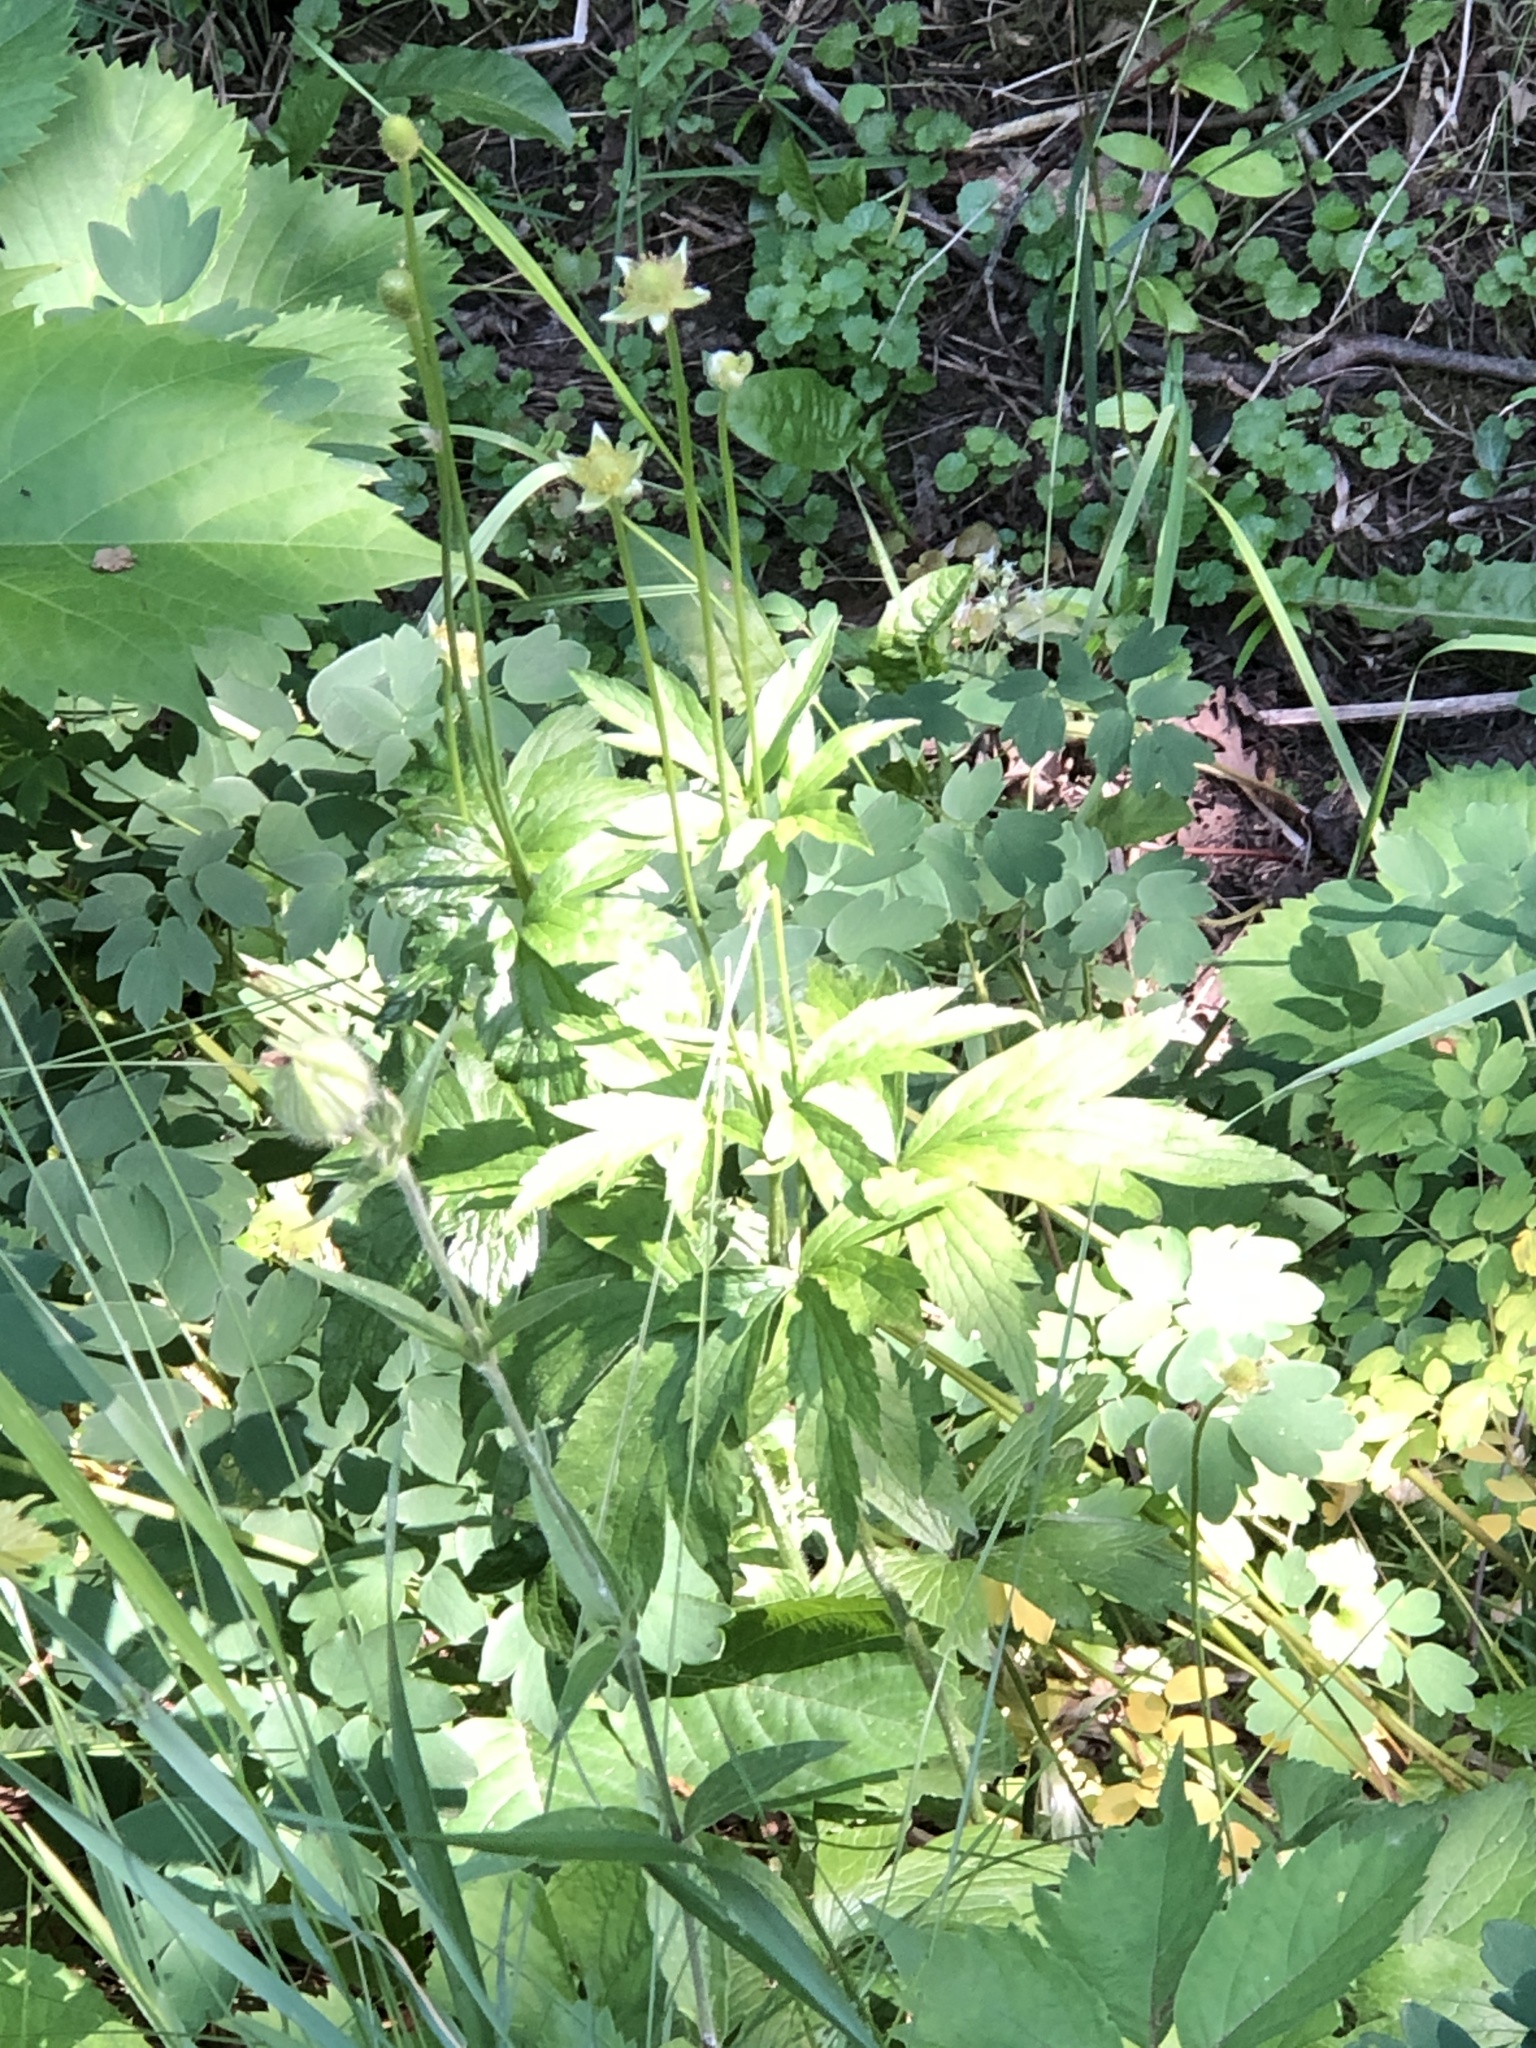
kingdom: Plantae
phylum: Tracheophyta
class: Magnoliopsida
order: Ranunculales
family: Ranunculaceae
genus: Anemone
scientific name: Anemone virginiana
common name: Tall anemone
